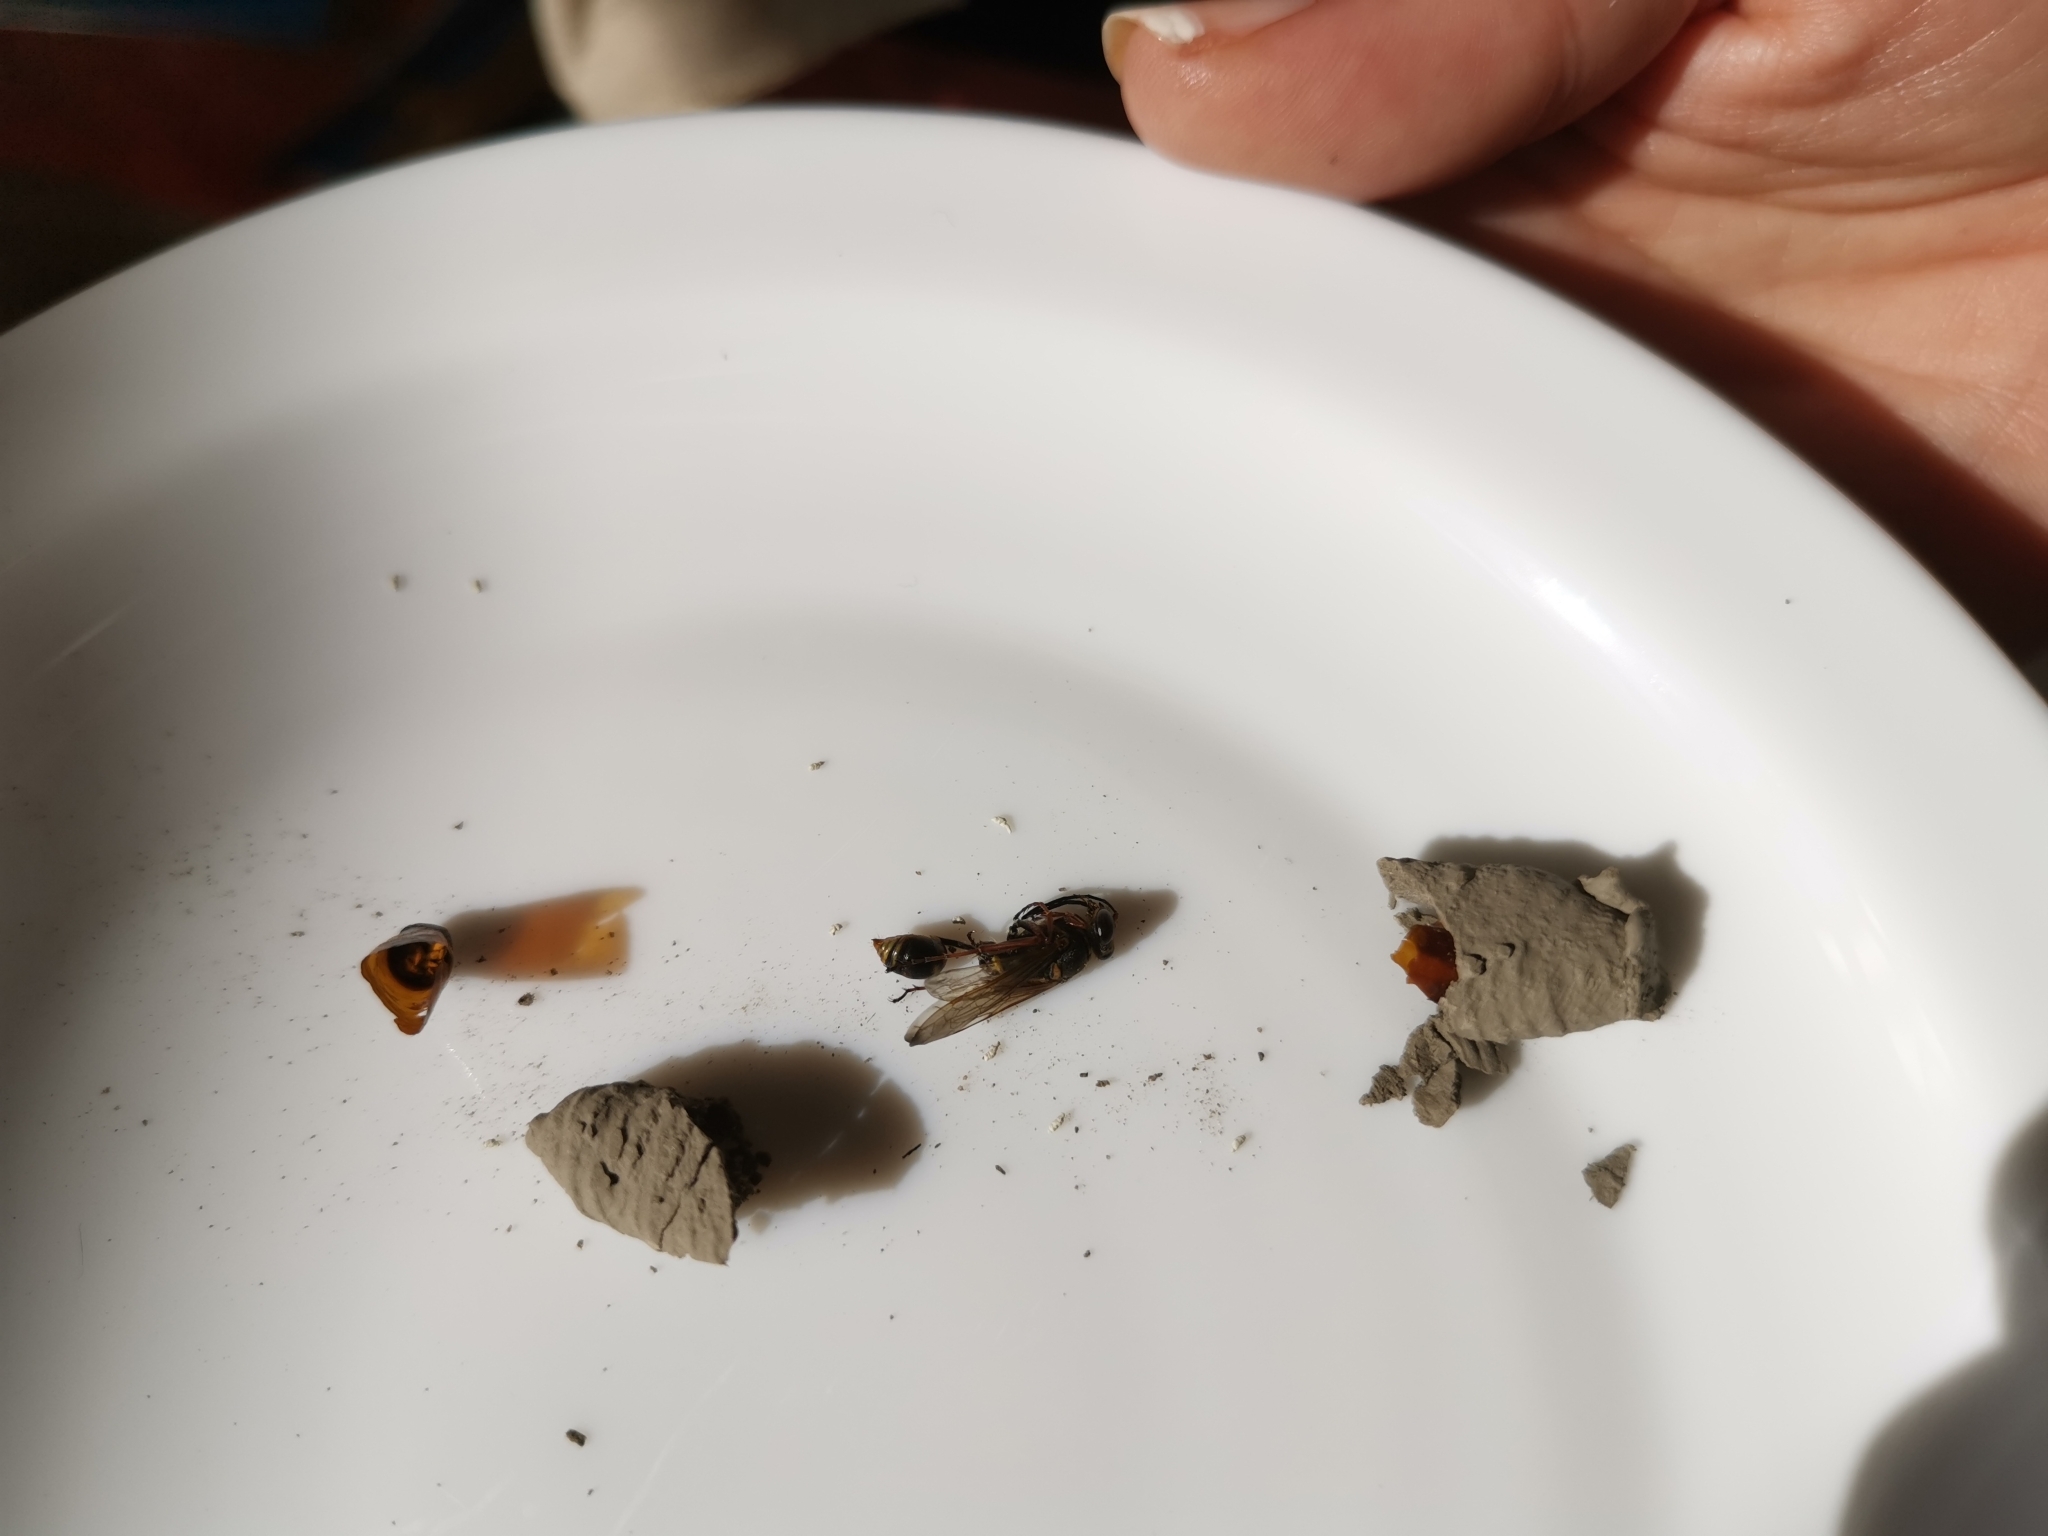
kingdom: Animalia
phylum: Arthropoda
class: Insecta
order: Hymenoptera
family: Sphecidae
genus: Sceliphron
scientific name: Sceliphron curvatum
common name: Pèlopèe
